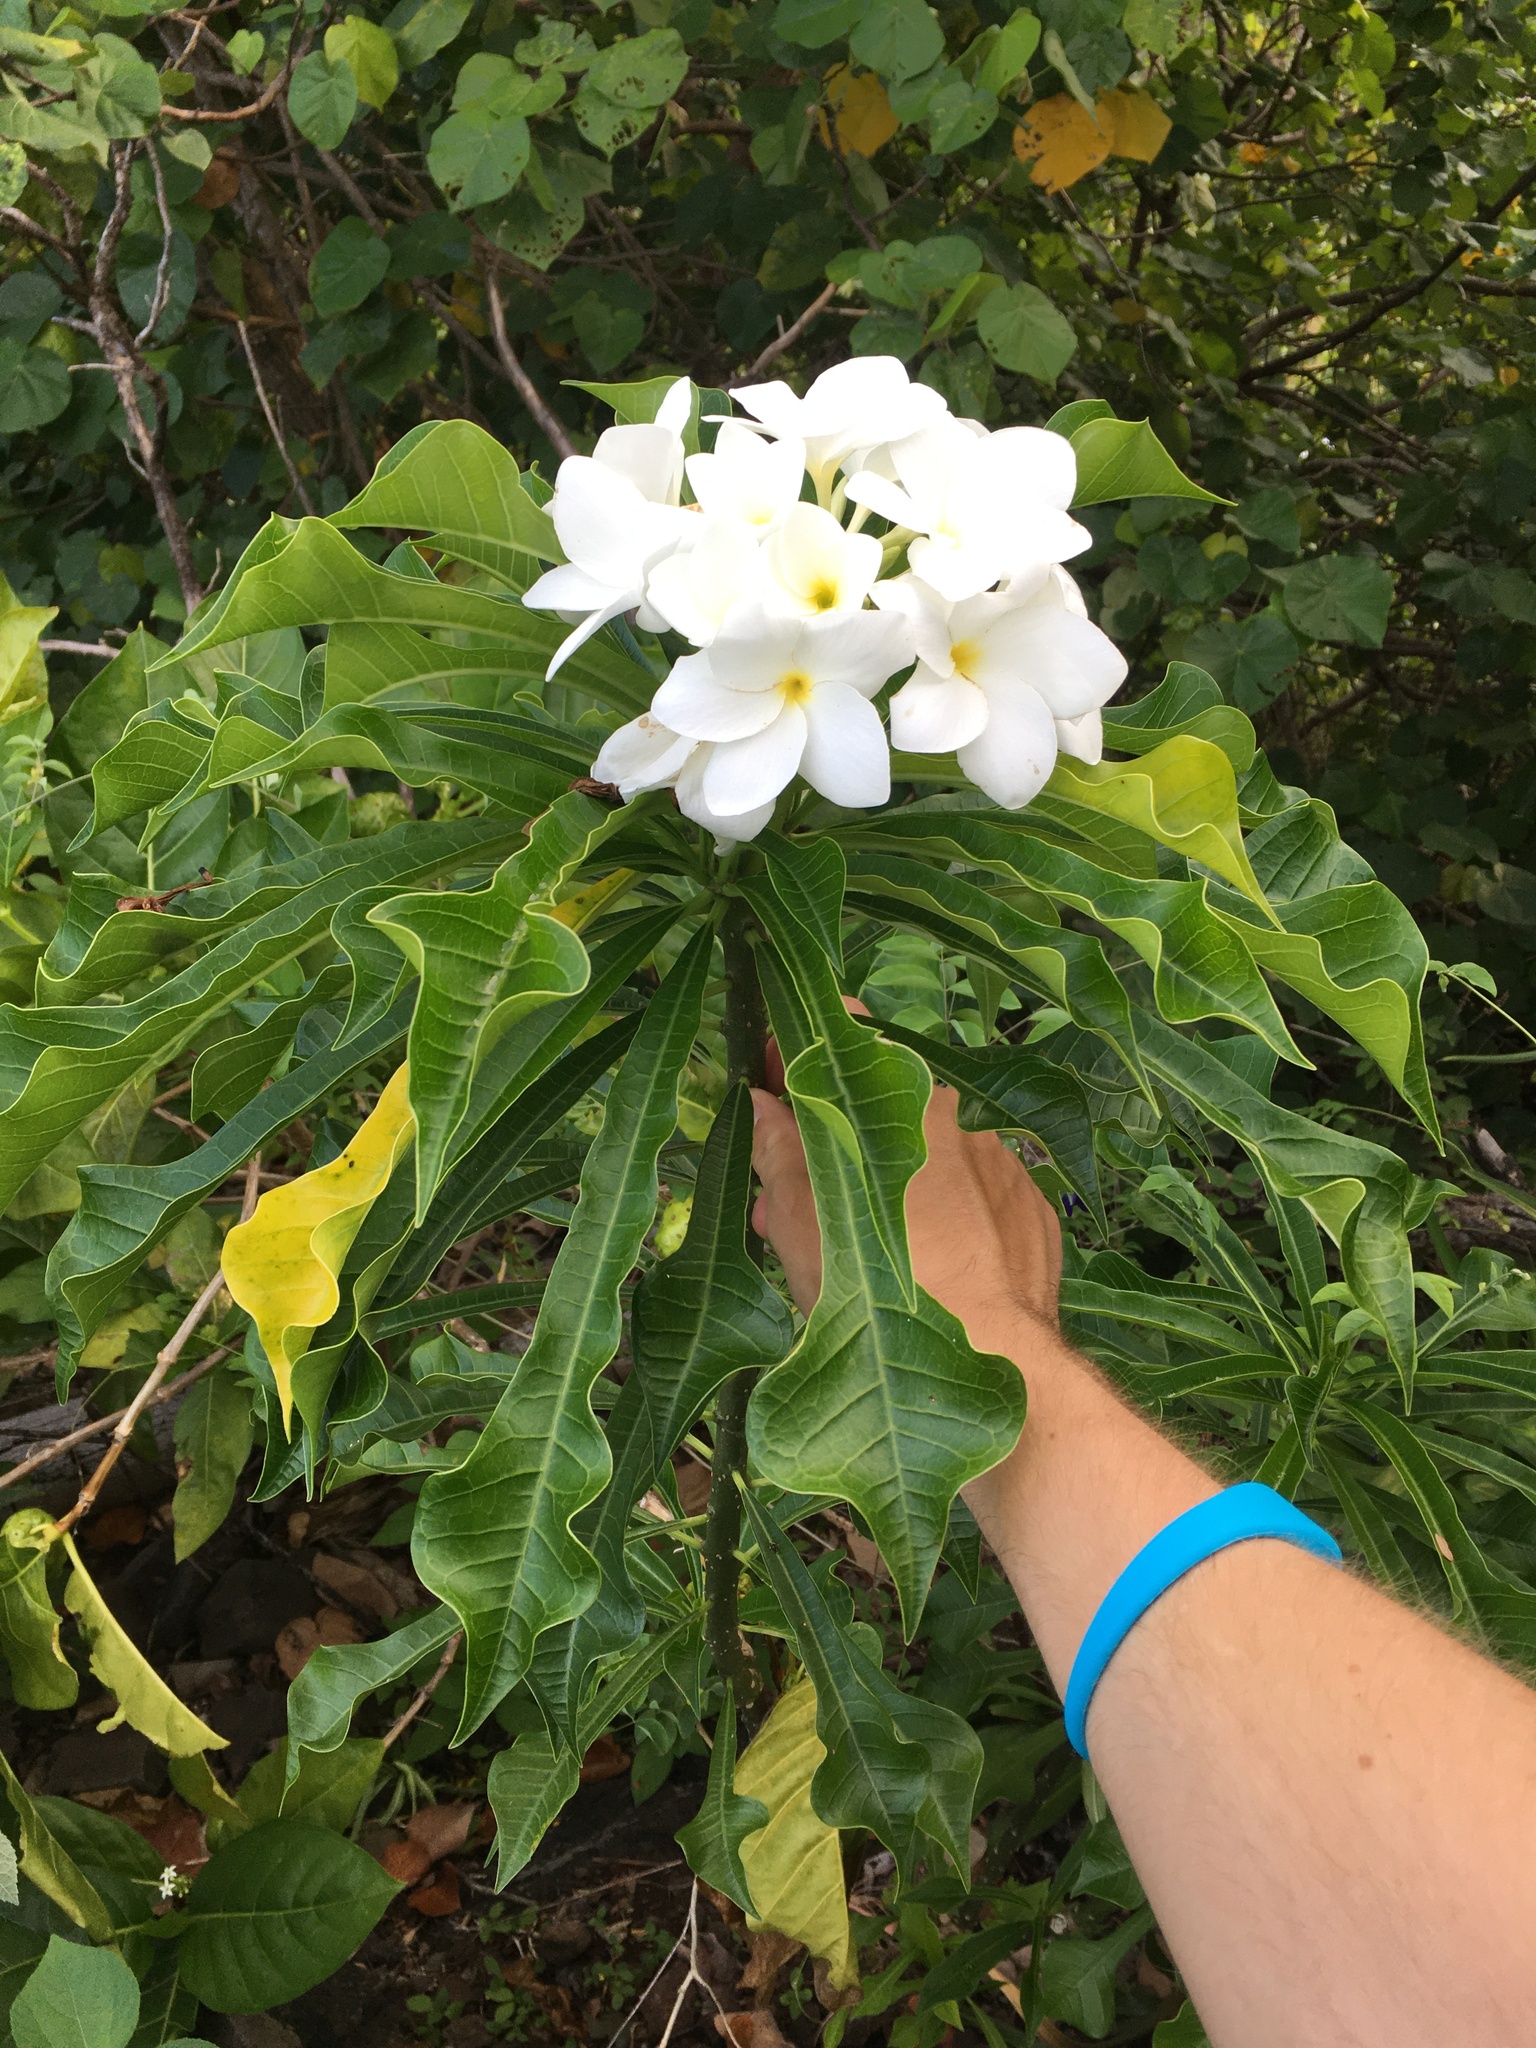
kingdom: Plantae
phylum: Tracheophyta
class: Magnoliopsida
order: Gentianales
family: Apocynaceae
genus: Plumeria
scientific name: Plumeria pudica
